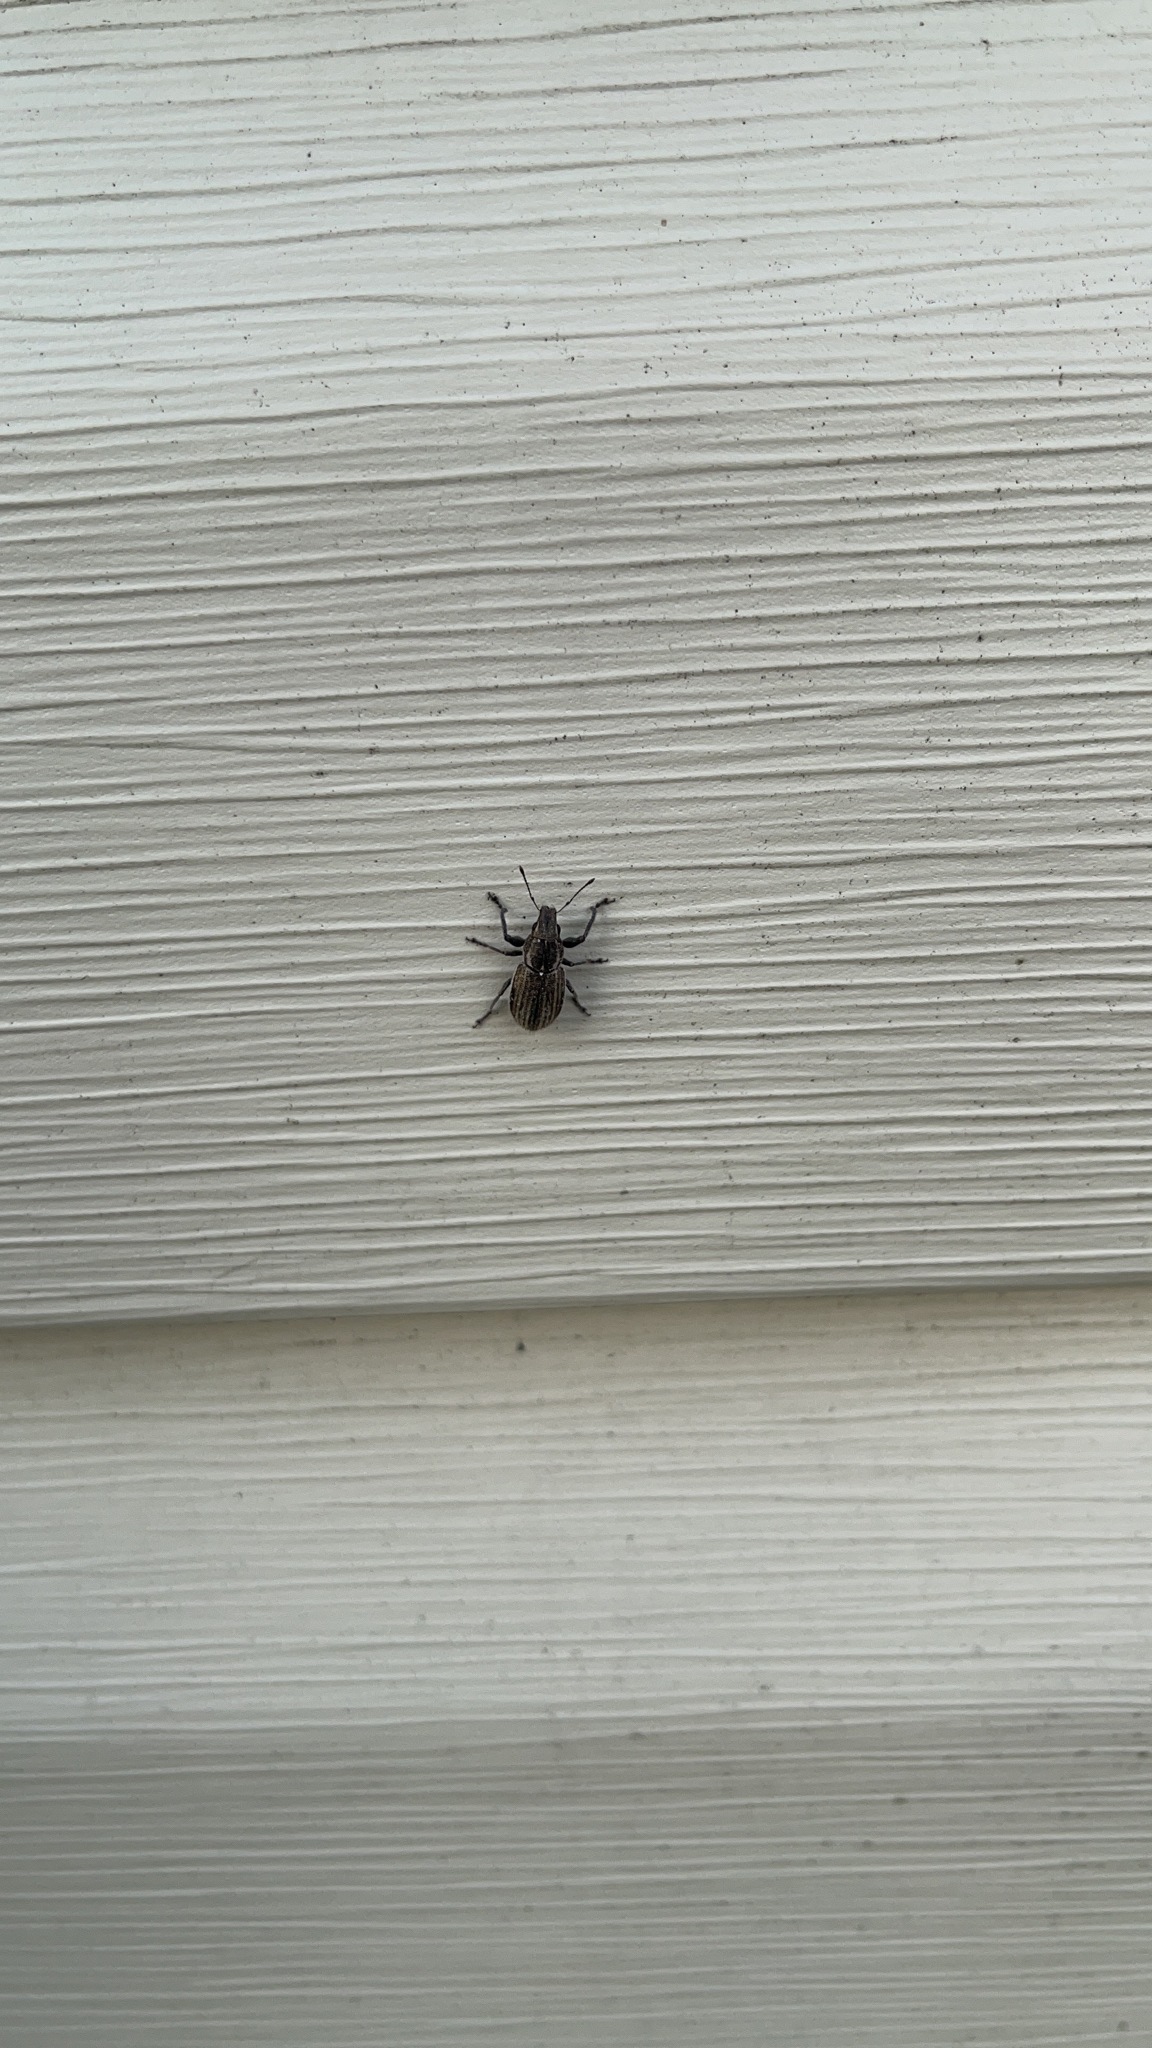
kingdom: Animalia
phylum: Arthropoda
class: Insecta
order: Coleoptera
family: Curculionidae
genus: Naupactus
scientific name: Naupactus leucoloma
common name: Whitefringed beetle
